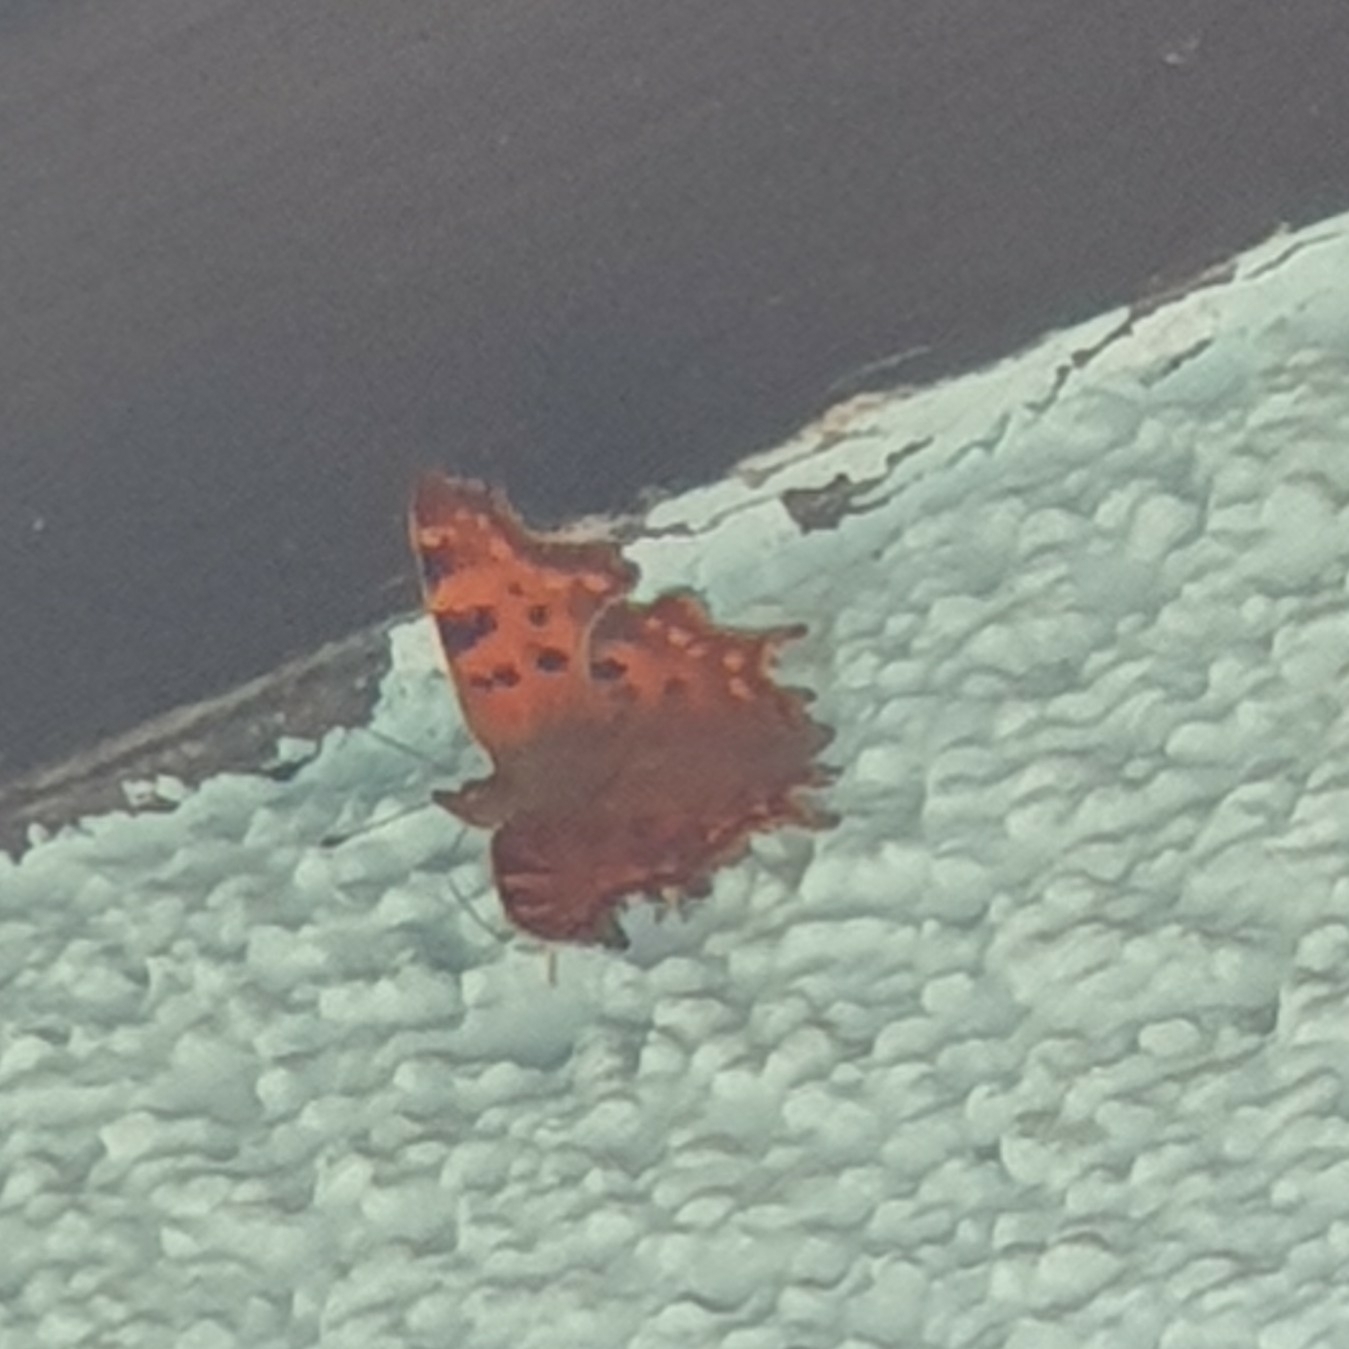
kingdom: Animalia
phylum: Arthropoda
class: Insecta
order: Lepidoptera
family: Nymphalidae
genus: Polygonia
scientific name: Polygonia c-album
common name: Comma
